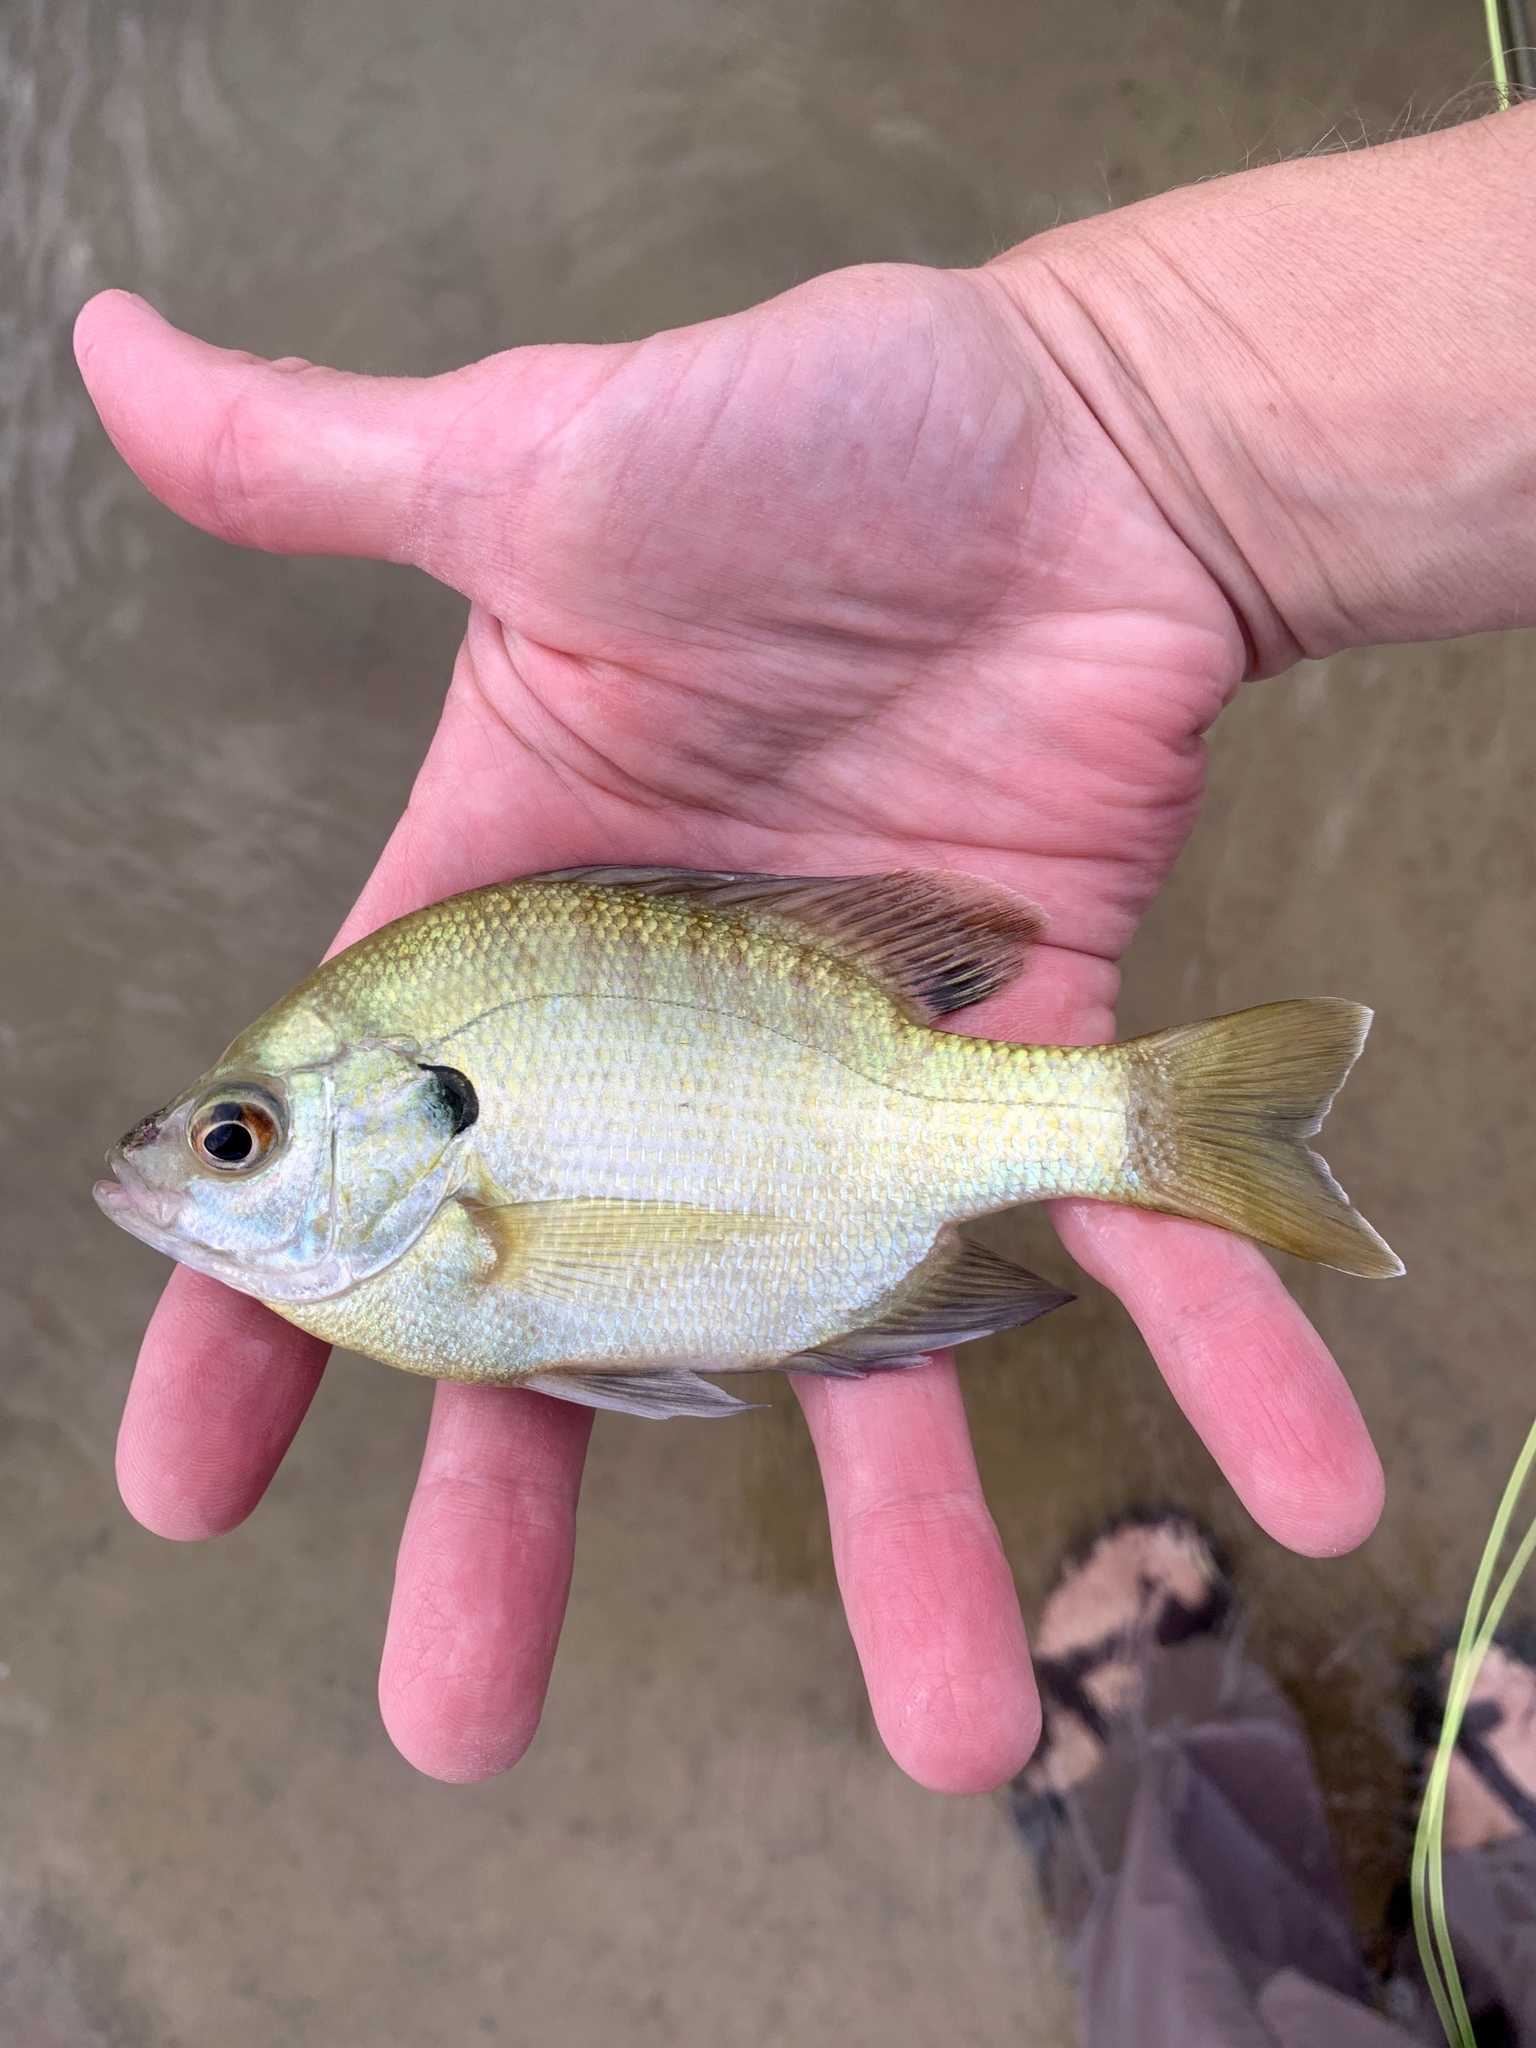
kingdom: Animalia
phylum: Chordata
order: Perciformes
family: Centrarchidae
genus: Lepomis
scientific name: Lepomis macrochirus
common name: Bluegill
